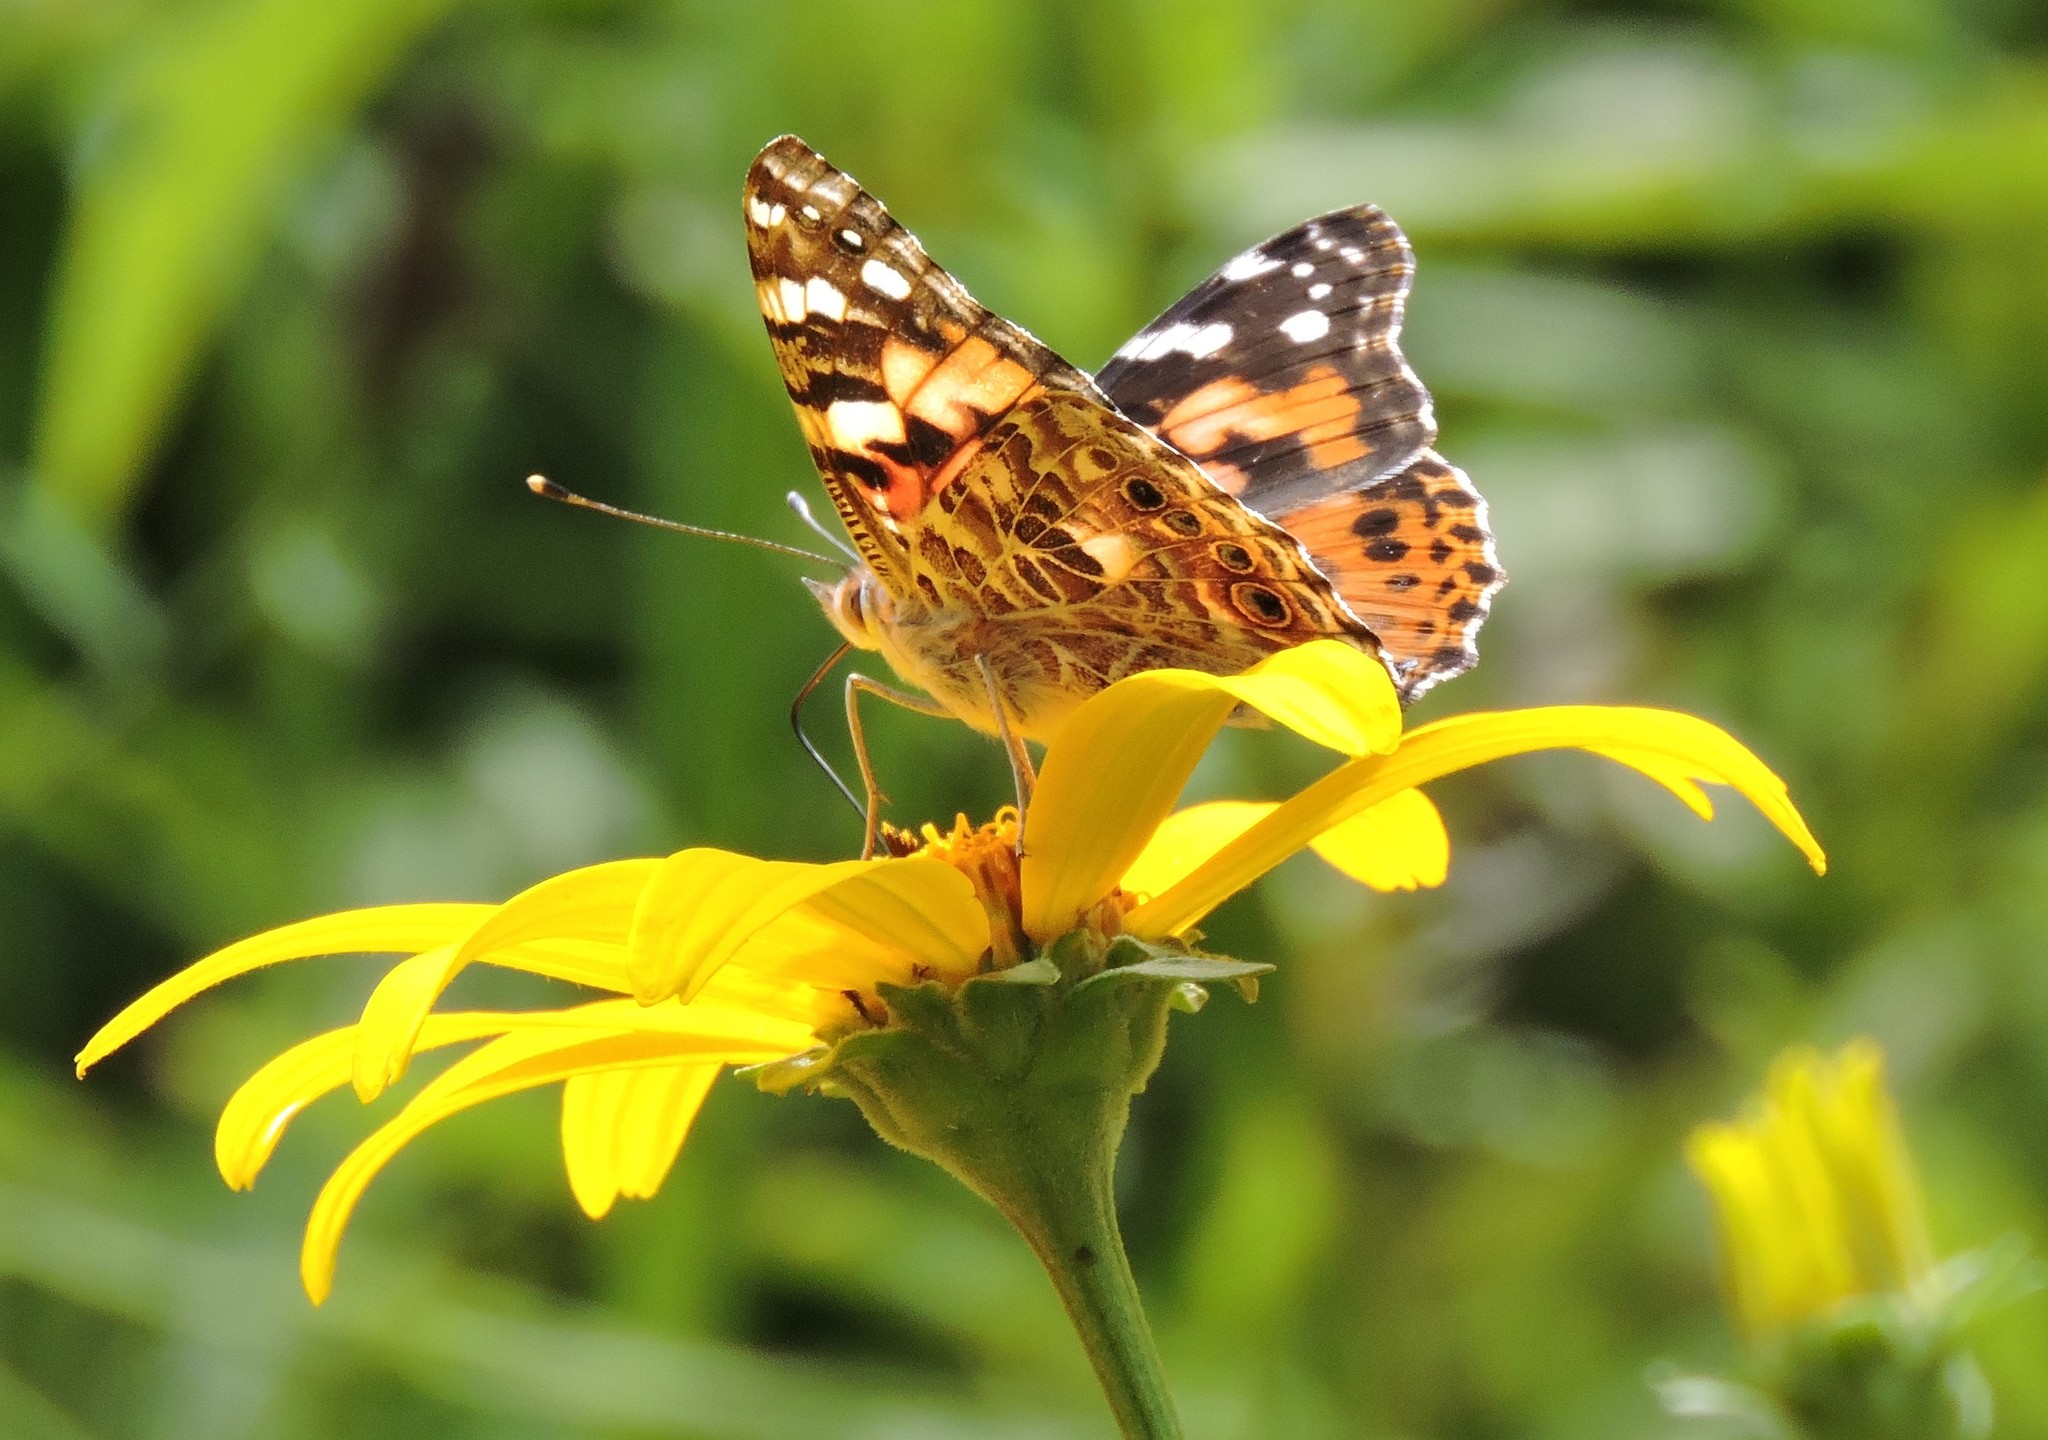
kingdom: Animalia
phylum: Arthropoda
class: Insecta
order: Lepidoptera
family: Nymphalidae
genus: Vanessa
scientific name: Vanessa cardui
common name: Painted lady
